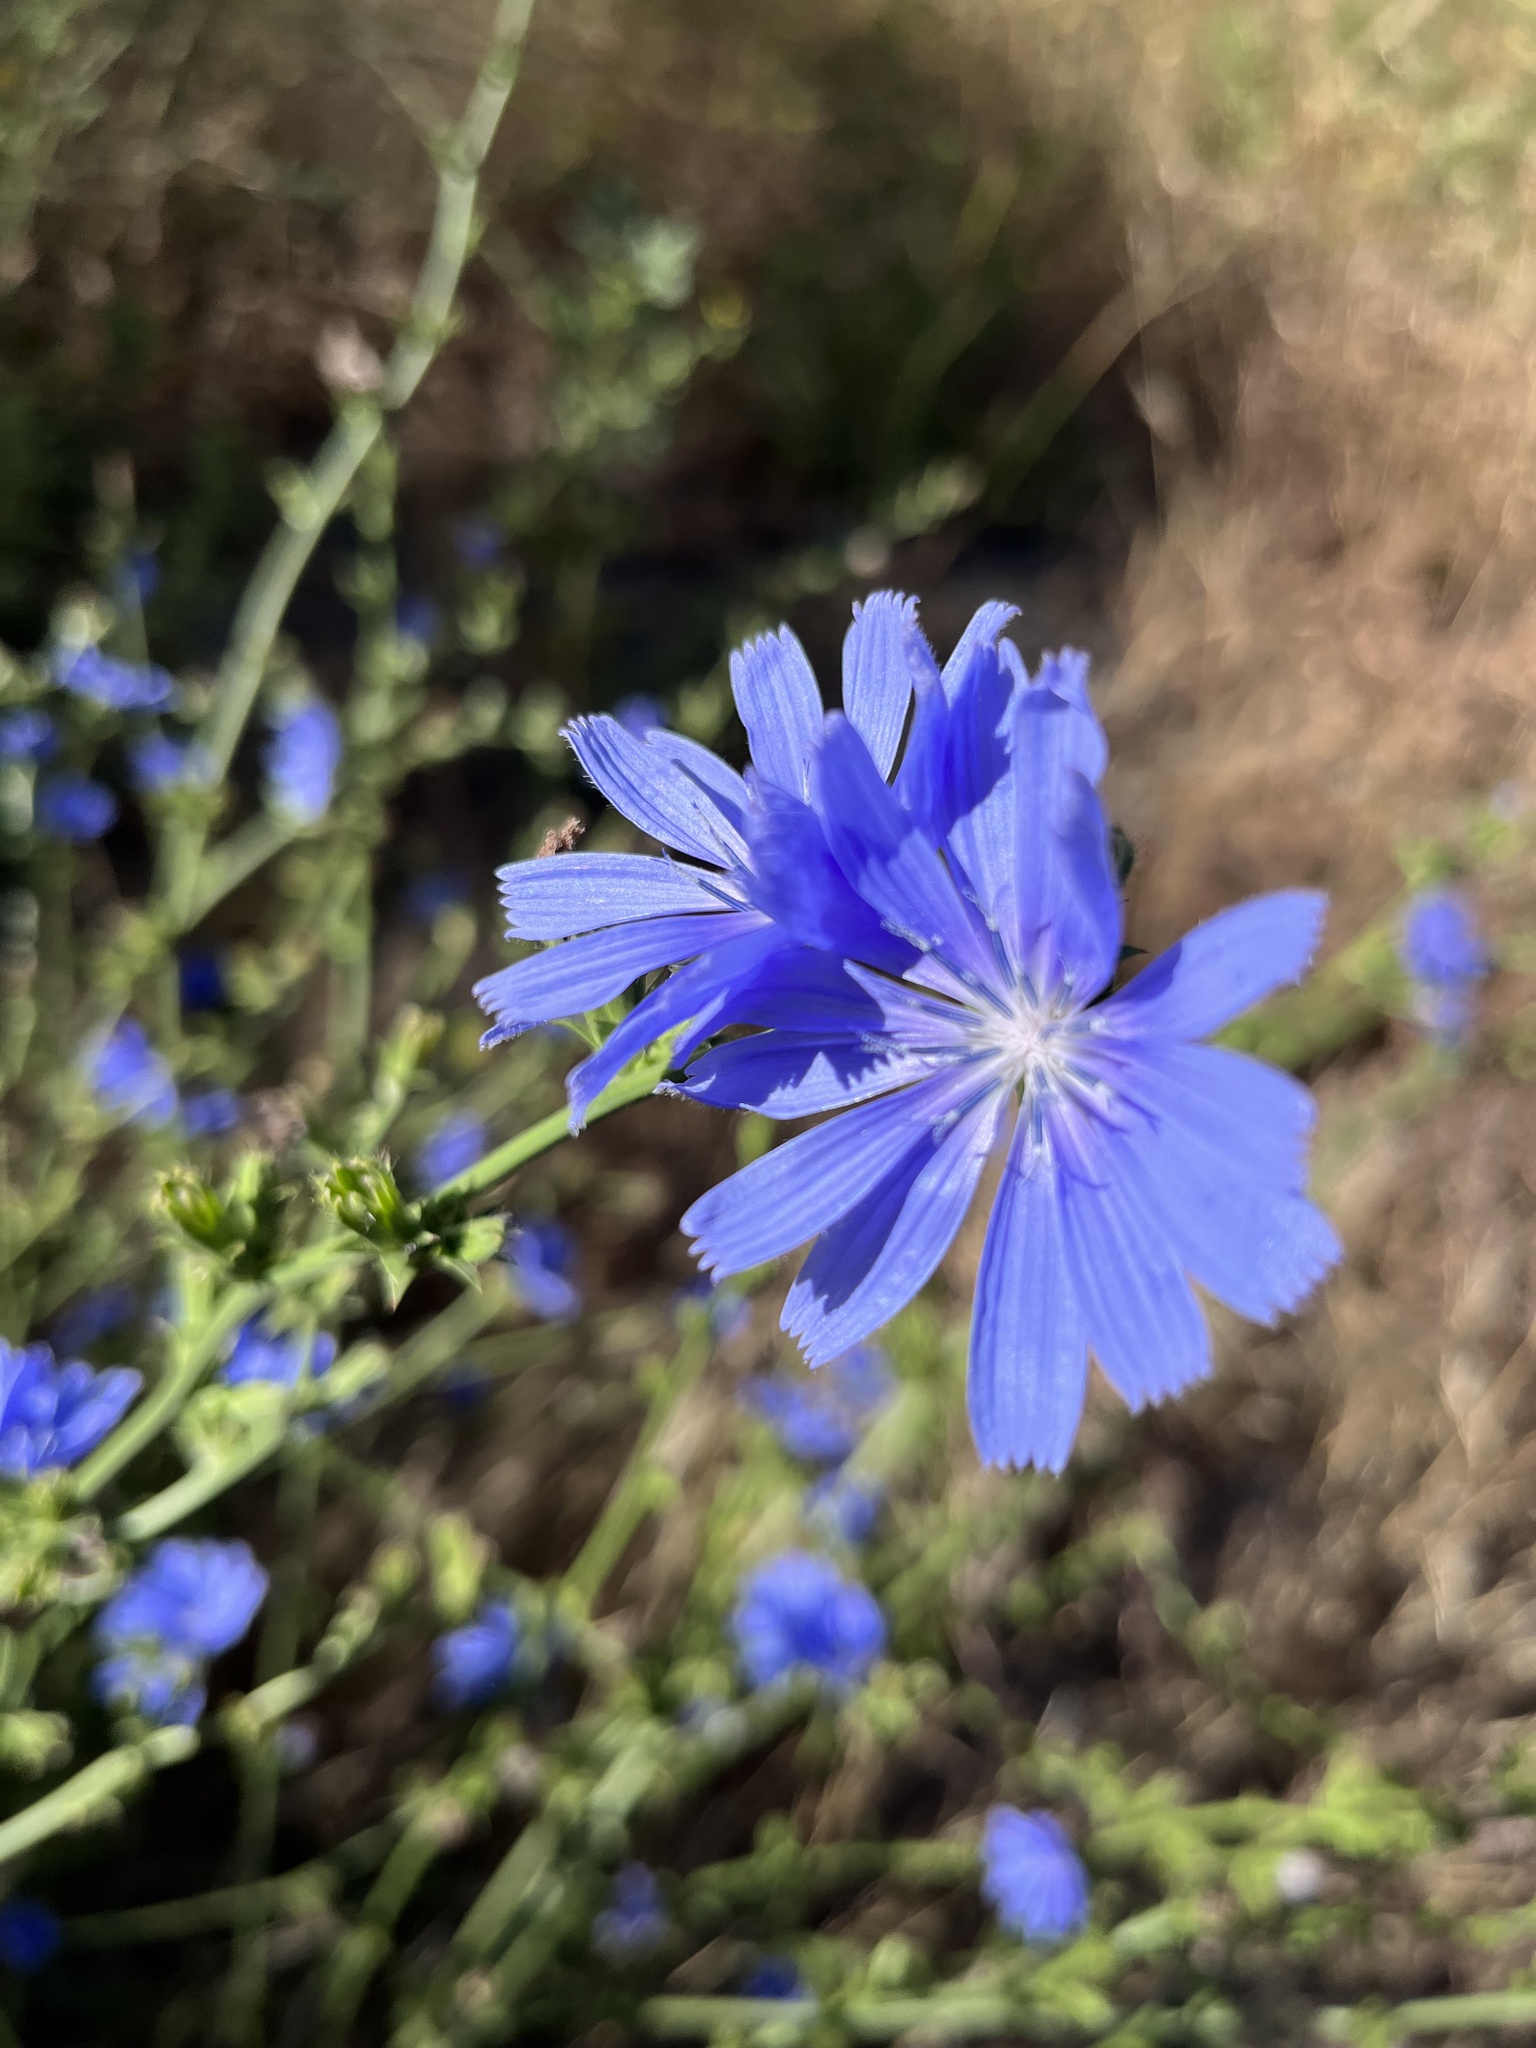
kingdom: Plantae
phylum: Tracheophyta
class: Magnoliopsida
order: Asterales
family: Asteraceae
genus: Cichorium
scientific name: Cichorium intybus
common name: Chicory
